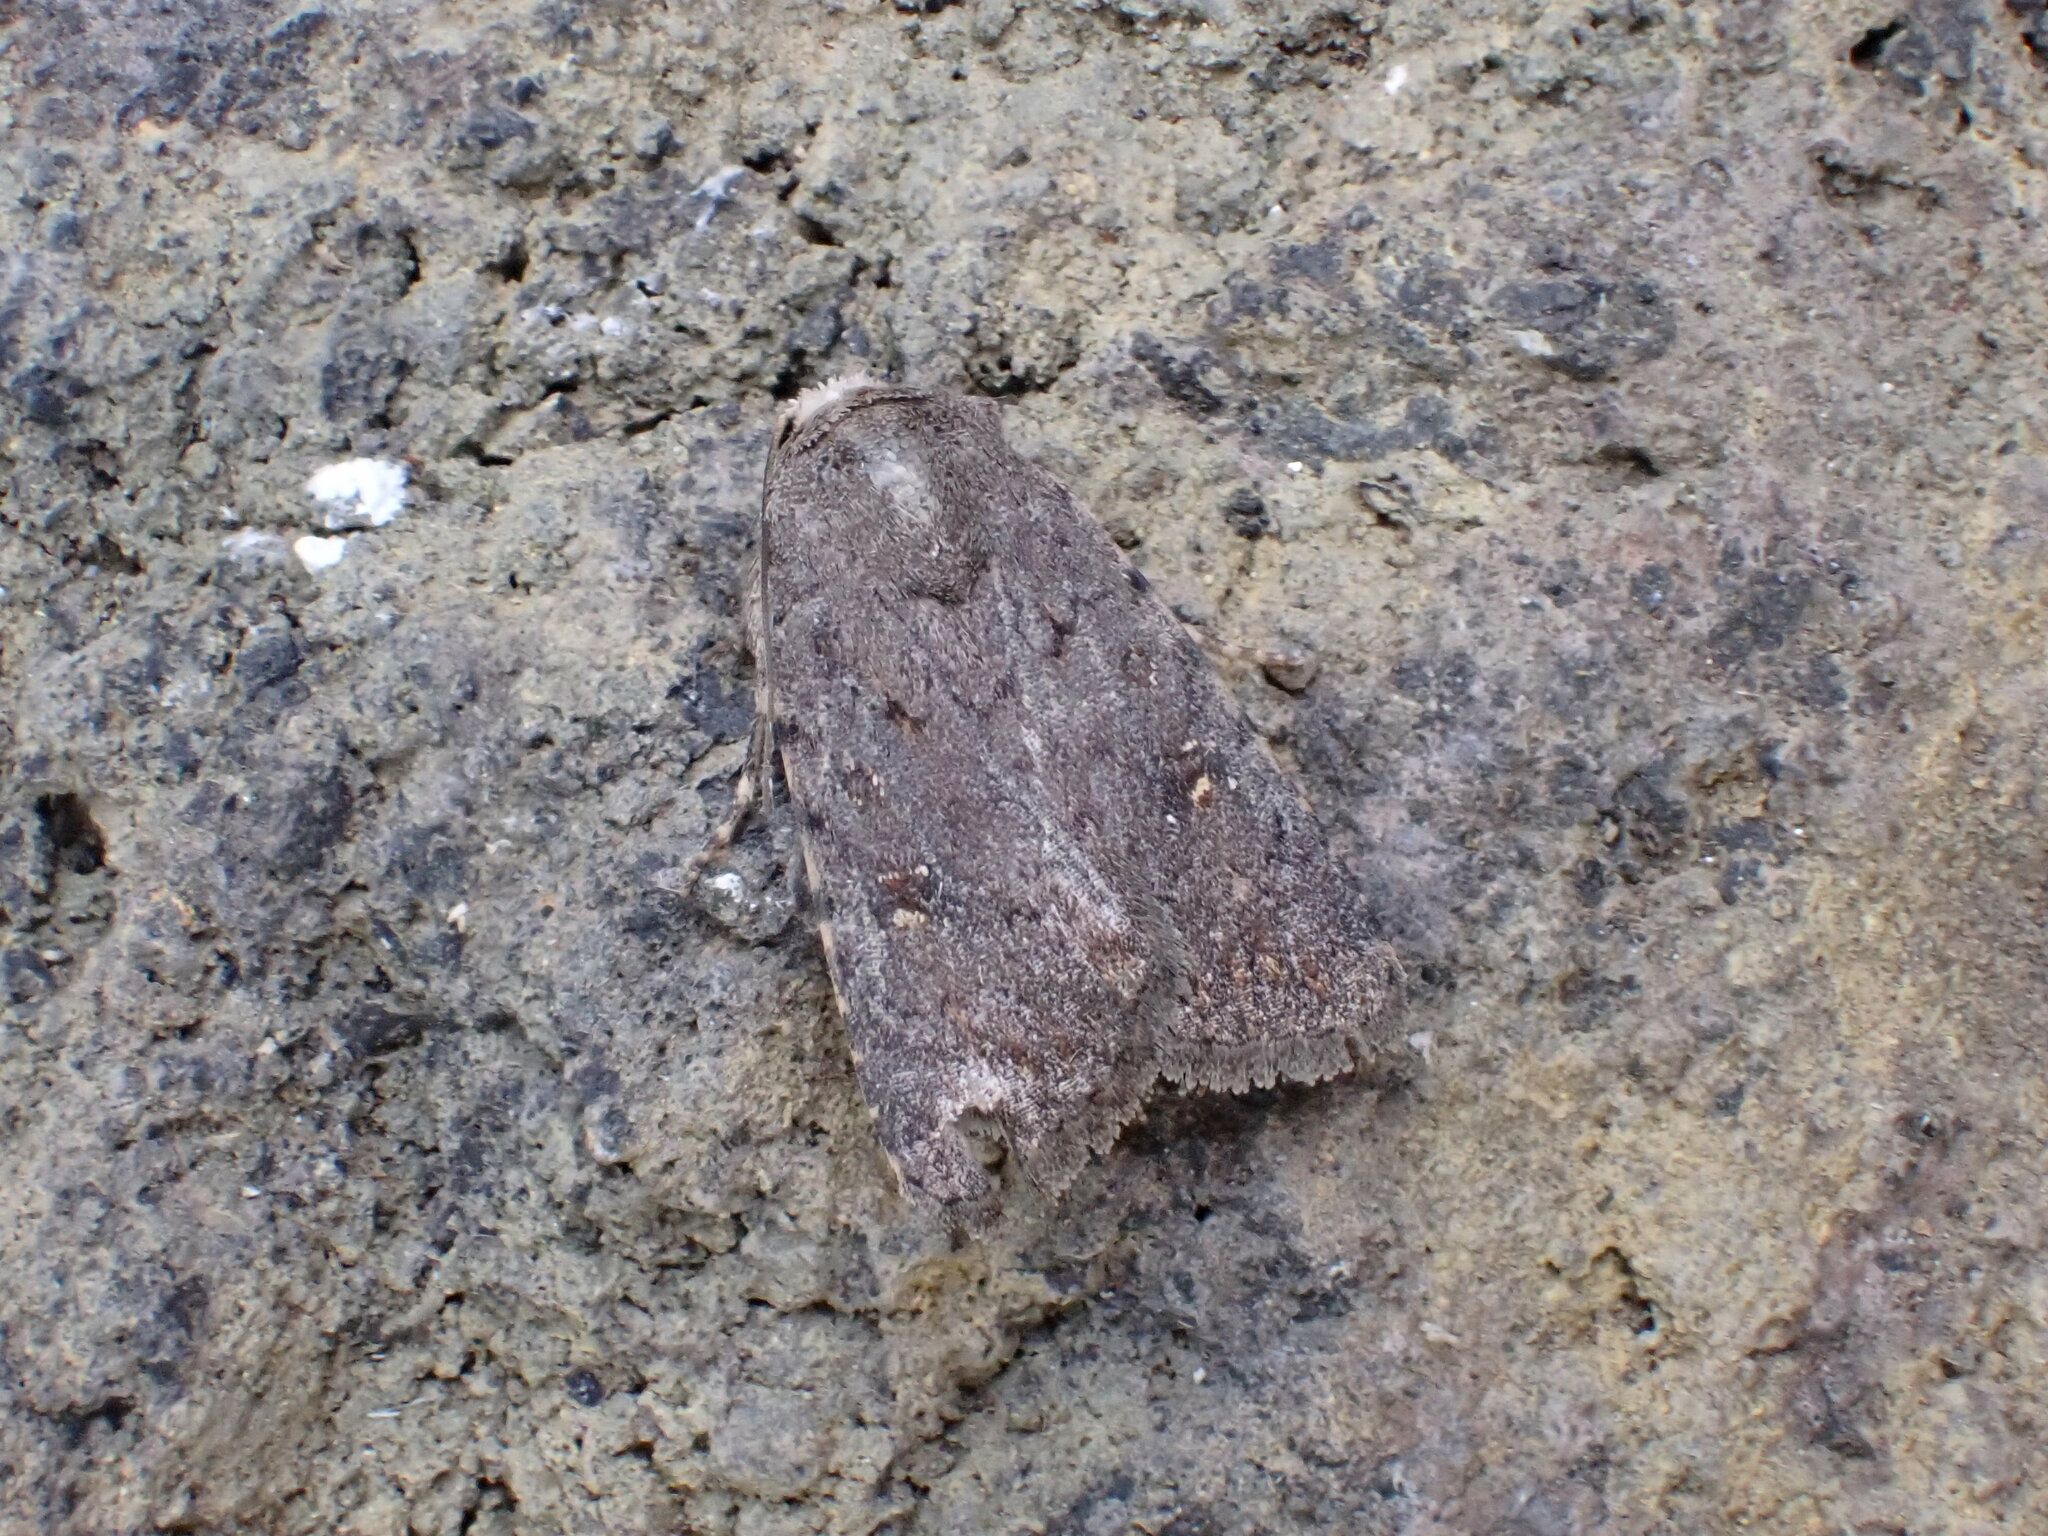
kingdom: Animalia
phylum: Arthropoda
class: Insecta
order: Lepidoptera
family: Noctuidae
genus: Caradrina
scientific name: Caradrina rebeli
